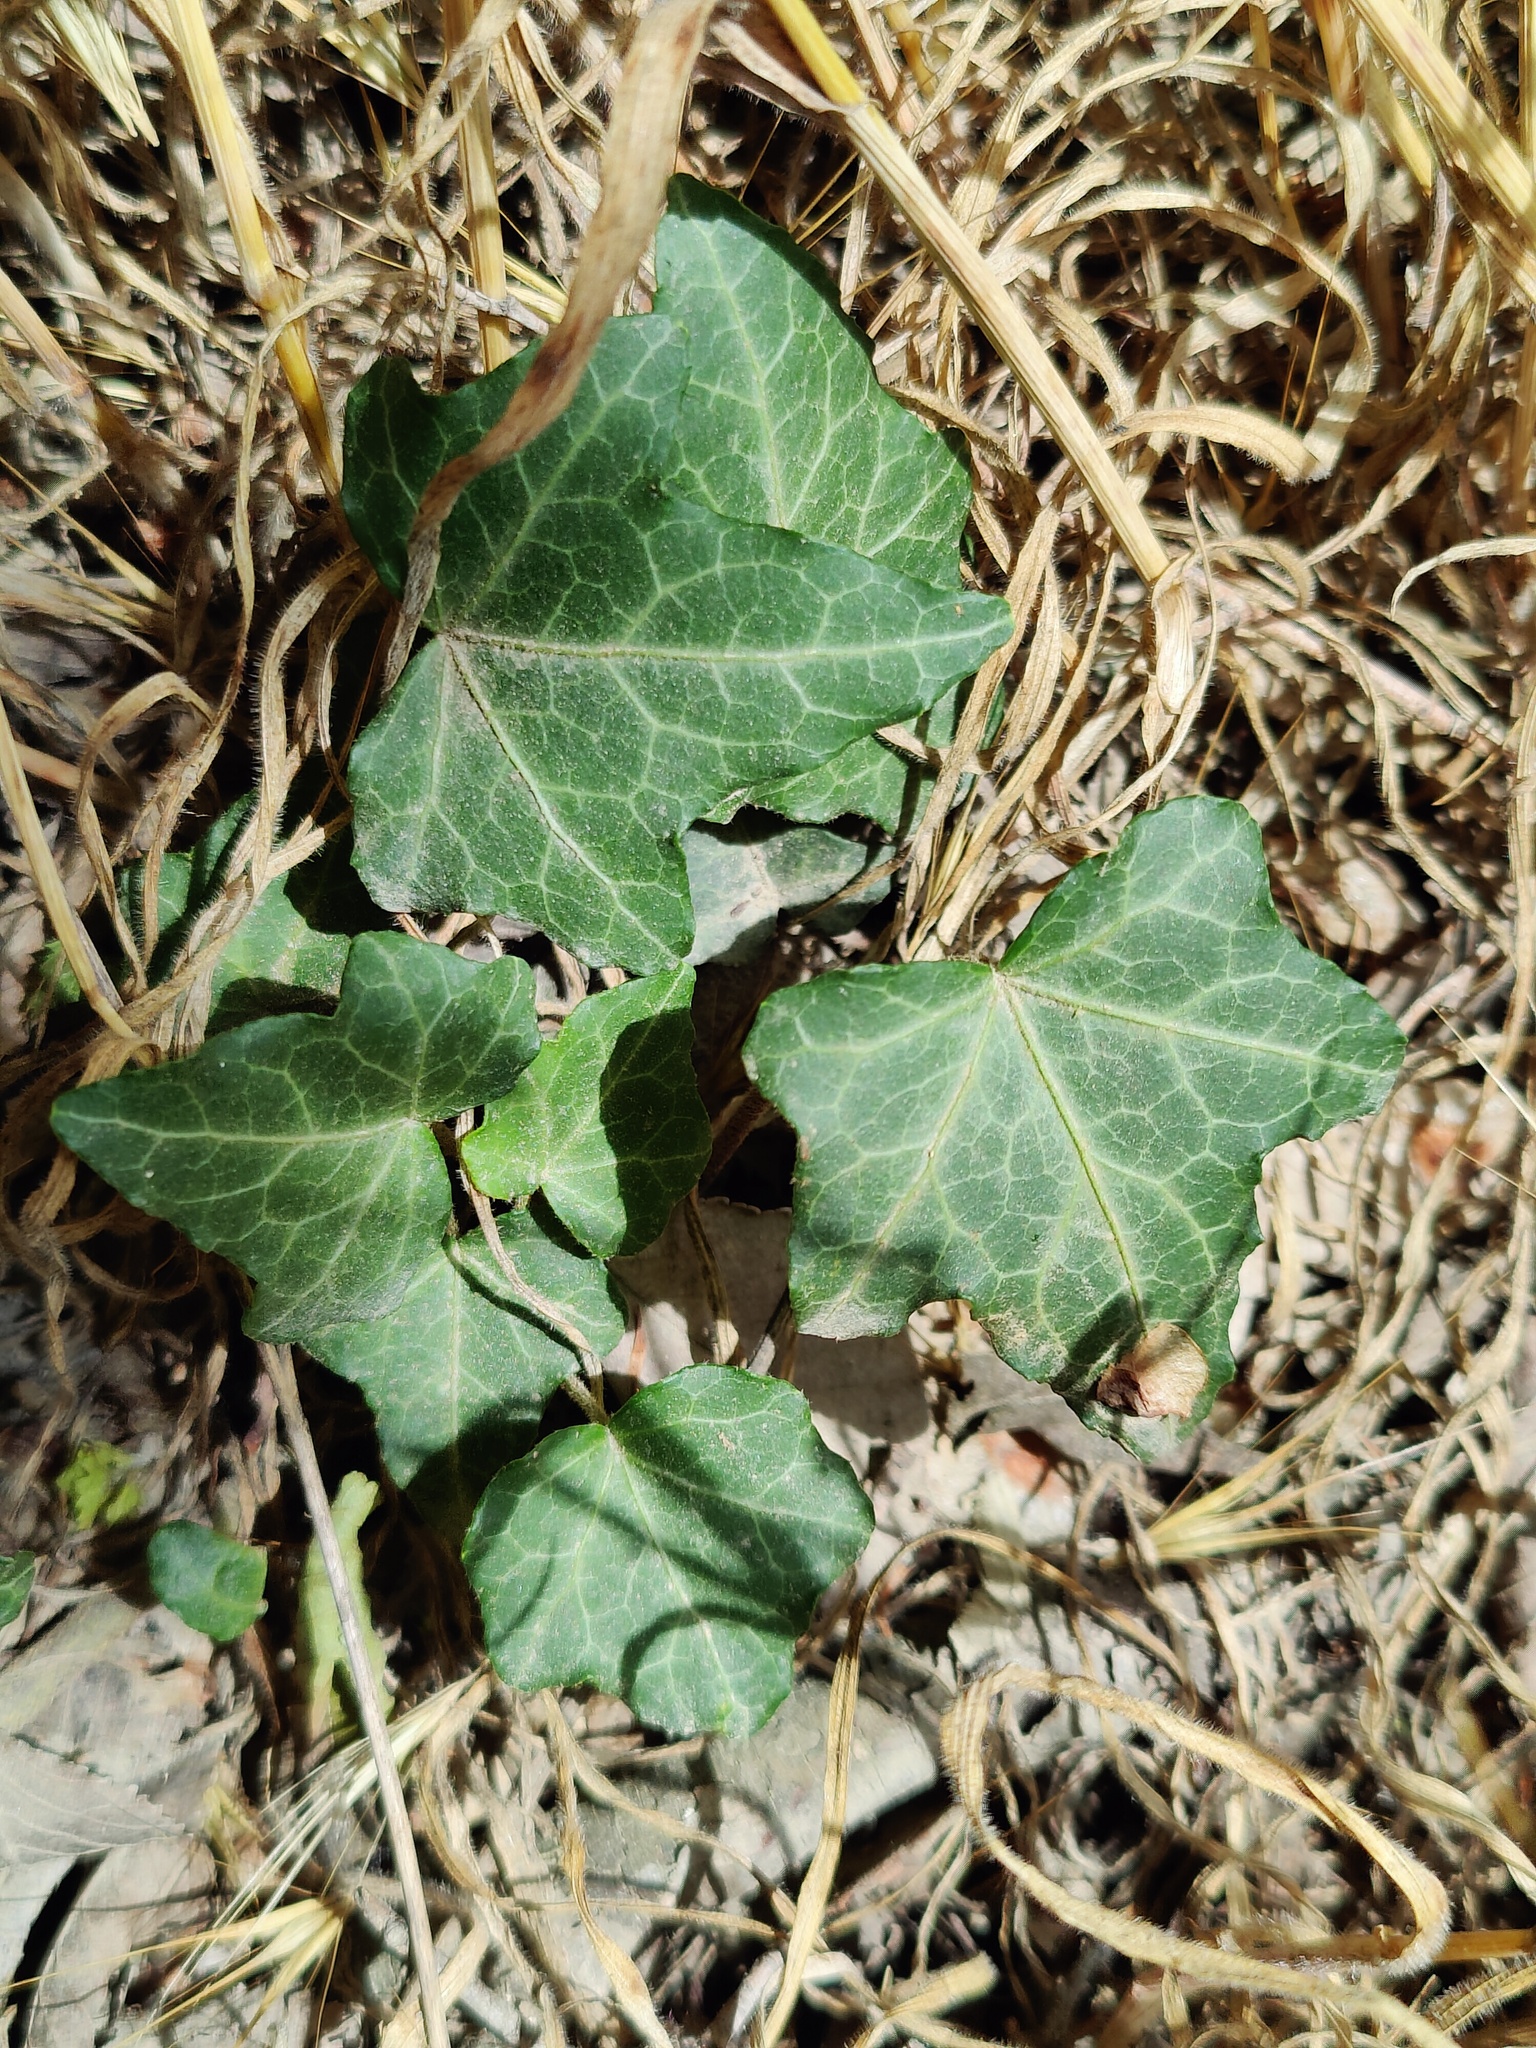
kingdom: Plantae
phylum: Tracheophyta
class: Magnoliopsida
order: Apiales
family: Araliaceae
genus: Hedera
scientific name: Hedera helix
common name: Ivy
